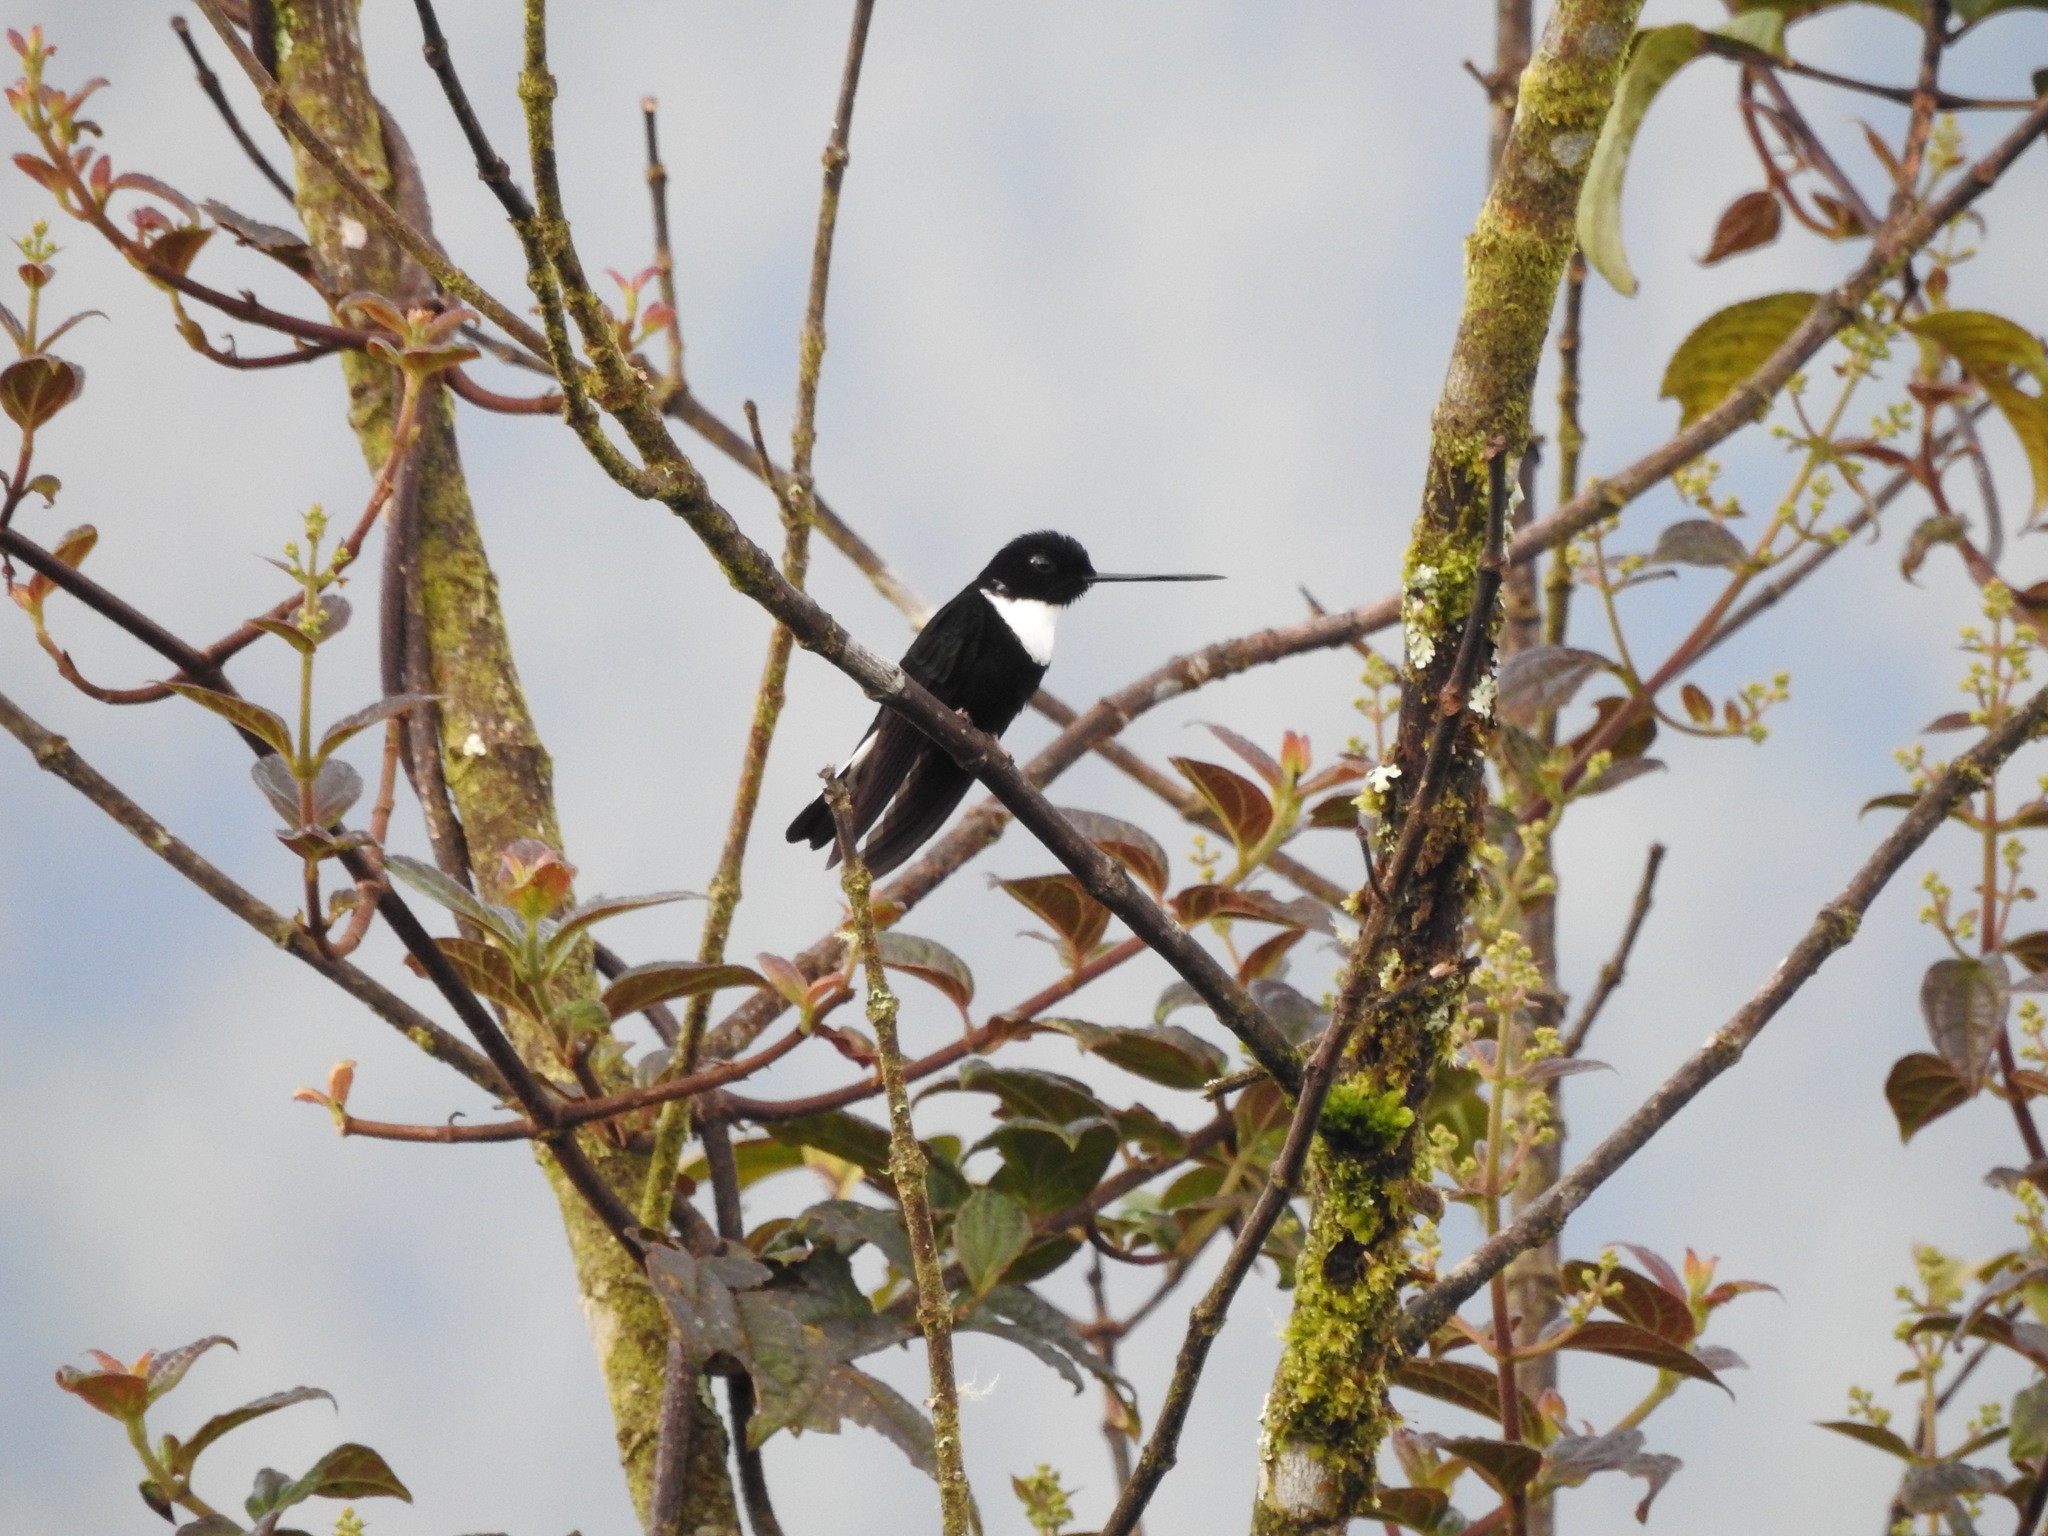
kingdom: Animalia
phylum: Chordata
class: Aves
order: Apodiformes
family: Trochilidae
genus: Coeligena
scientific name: Coeligena torquata
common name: Collared inca
